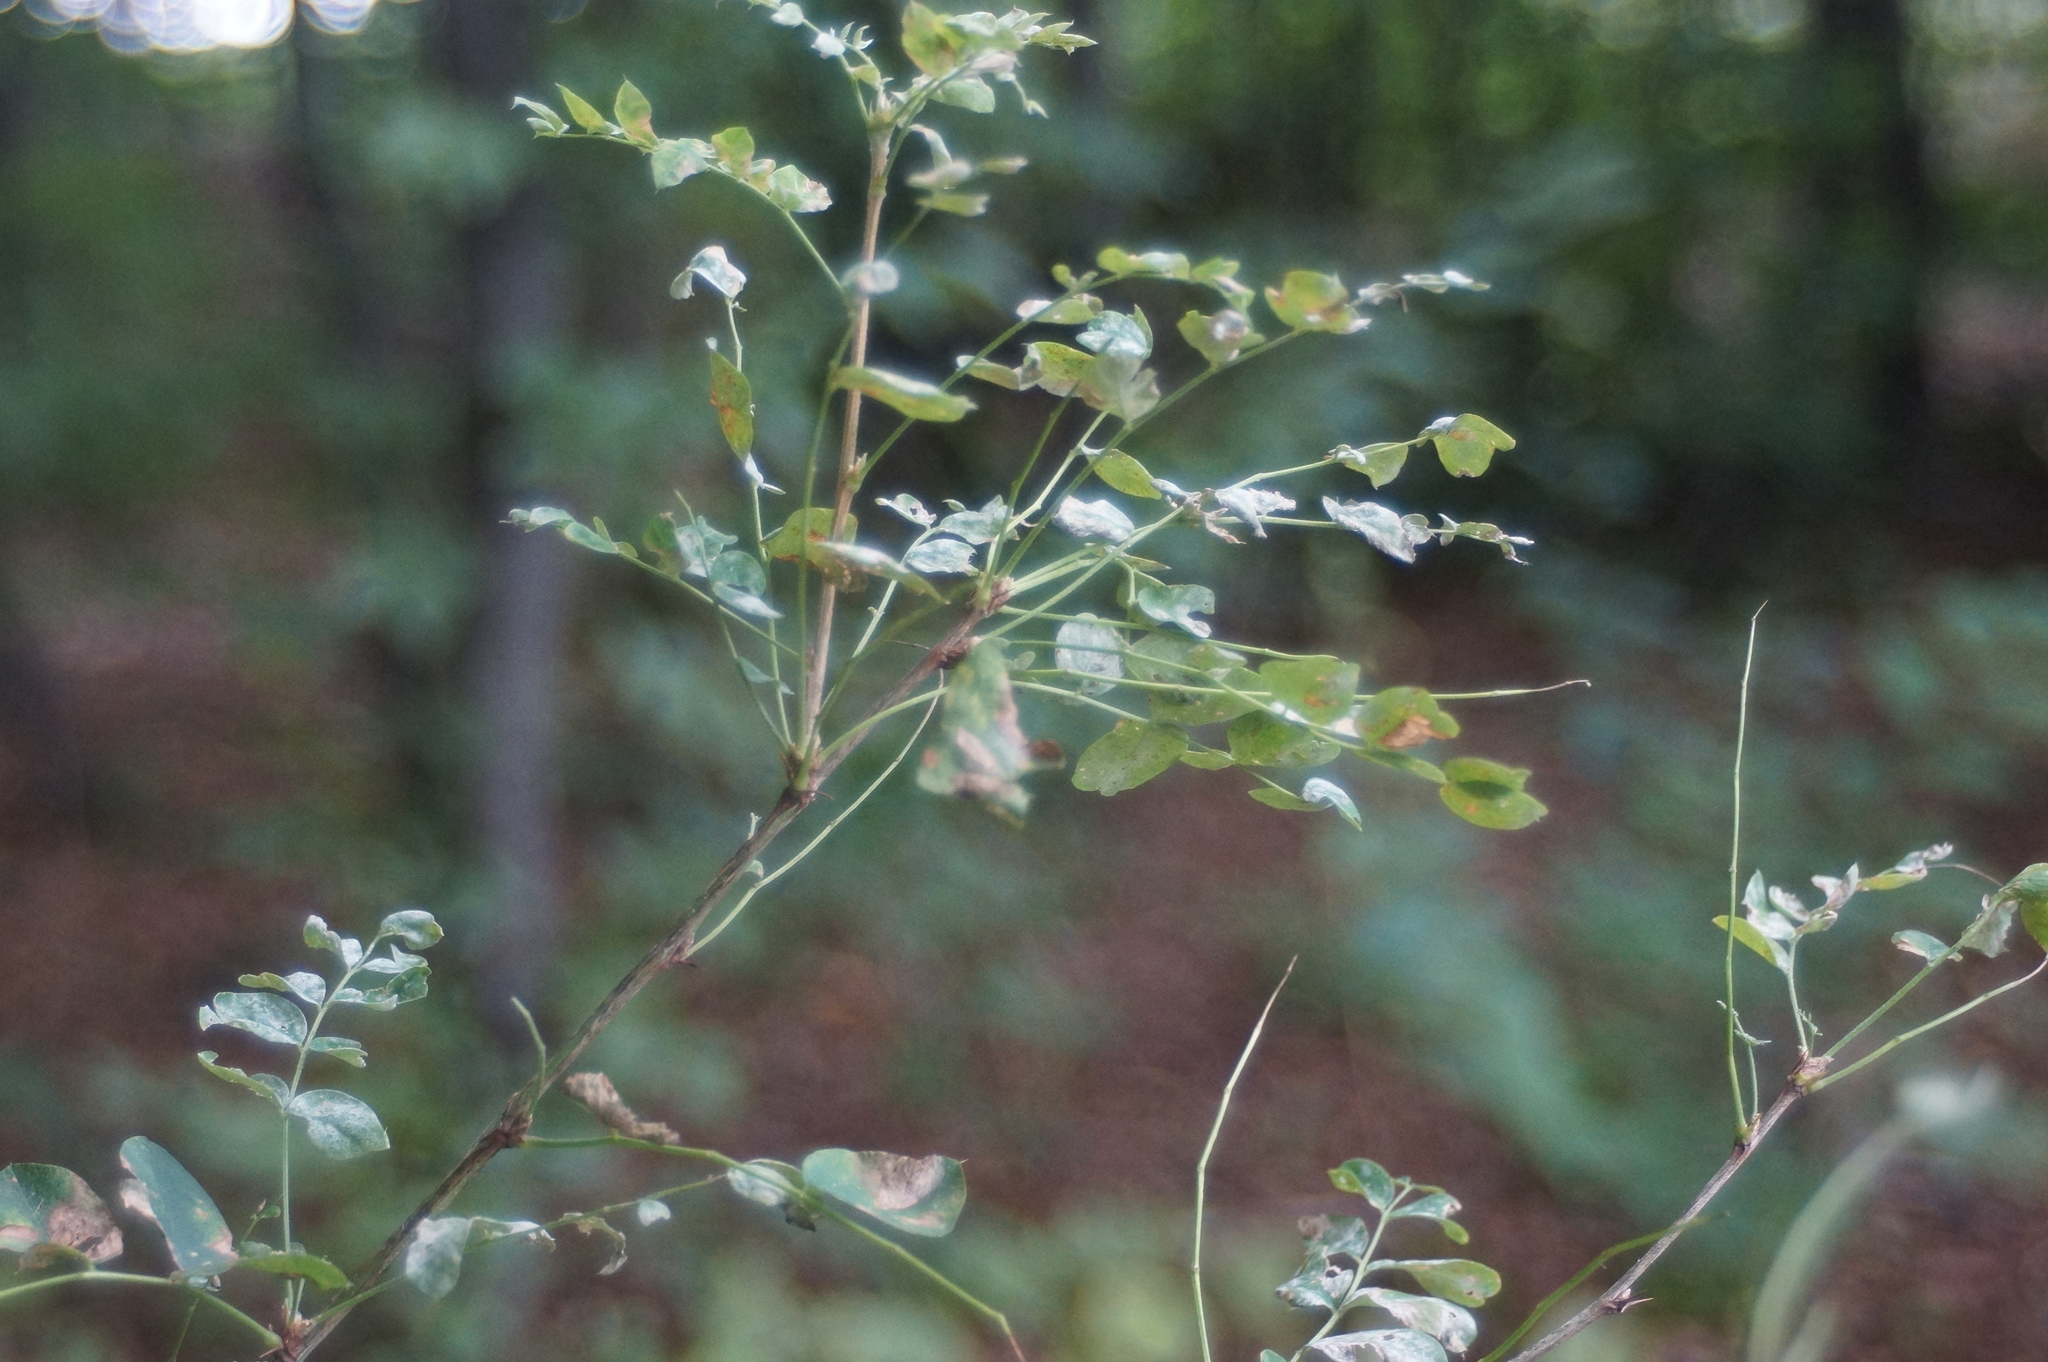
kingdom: Plantae
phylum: Tracheophyta
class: Magnoliopsida
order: Fabales
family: Fabaceae
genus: Caragana
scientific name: Caragana arborescens
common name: Siberian peashrub
